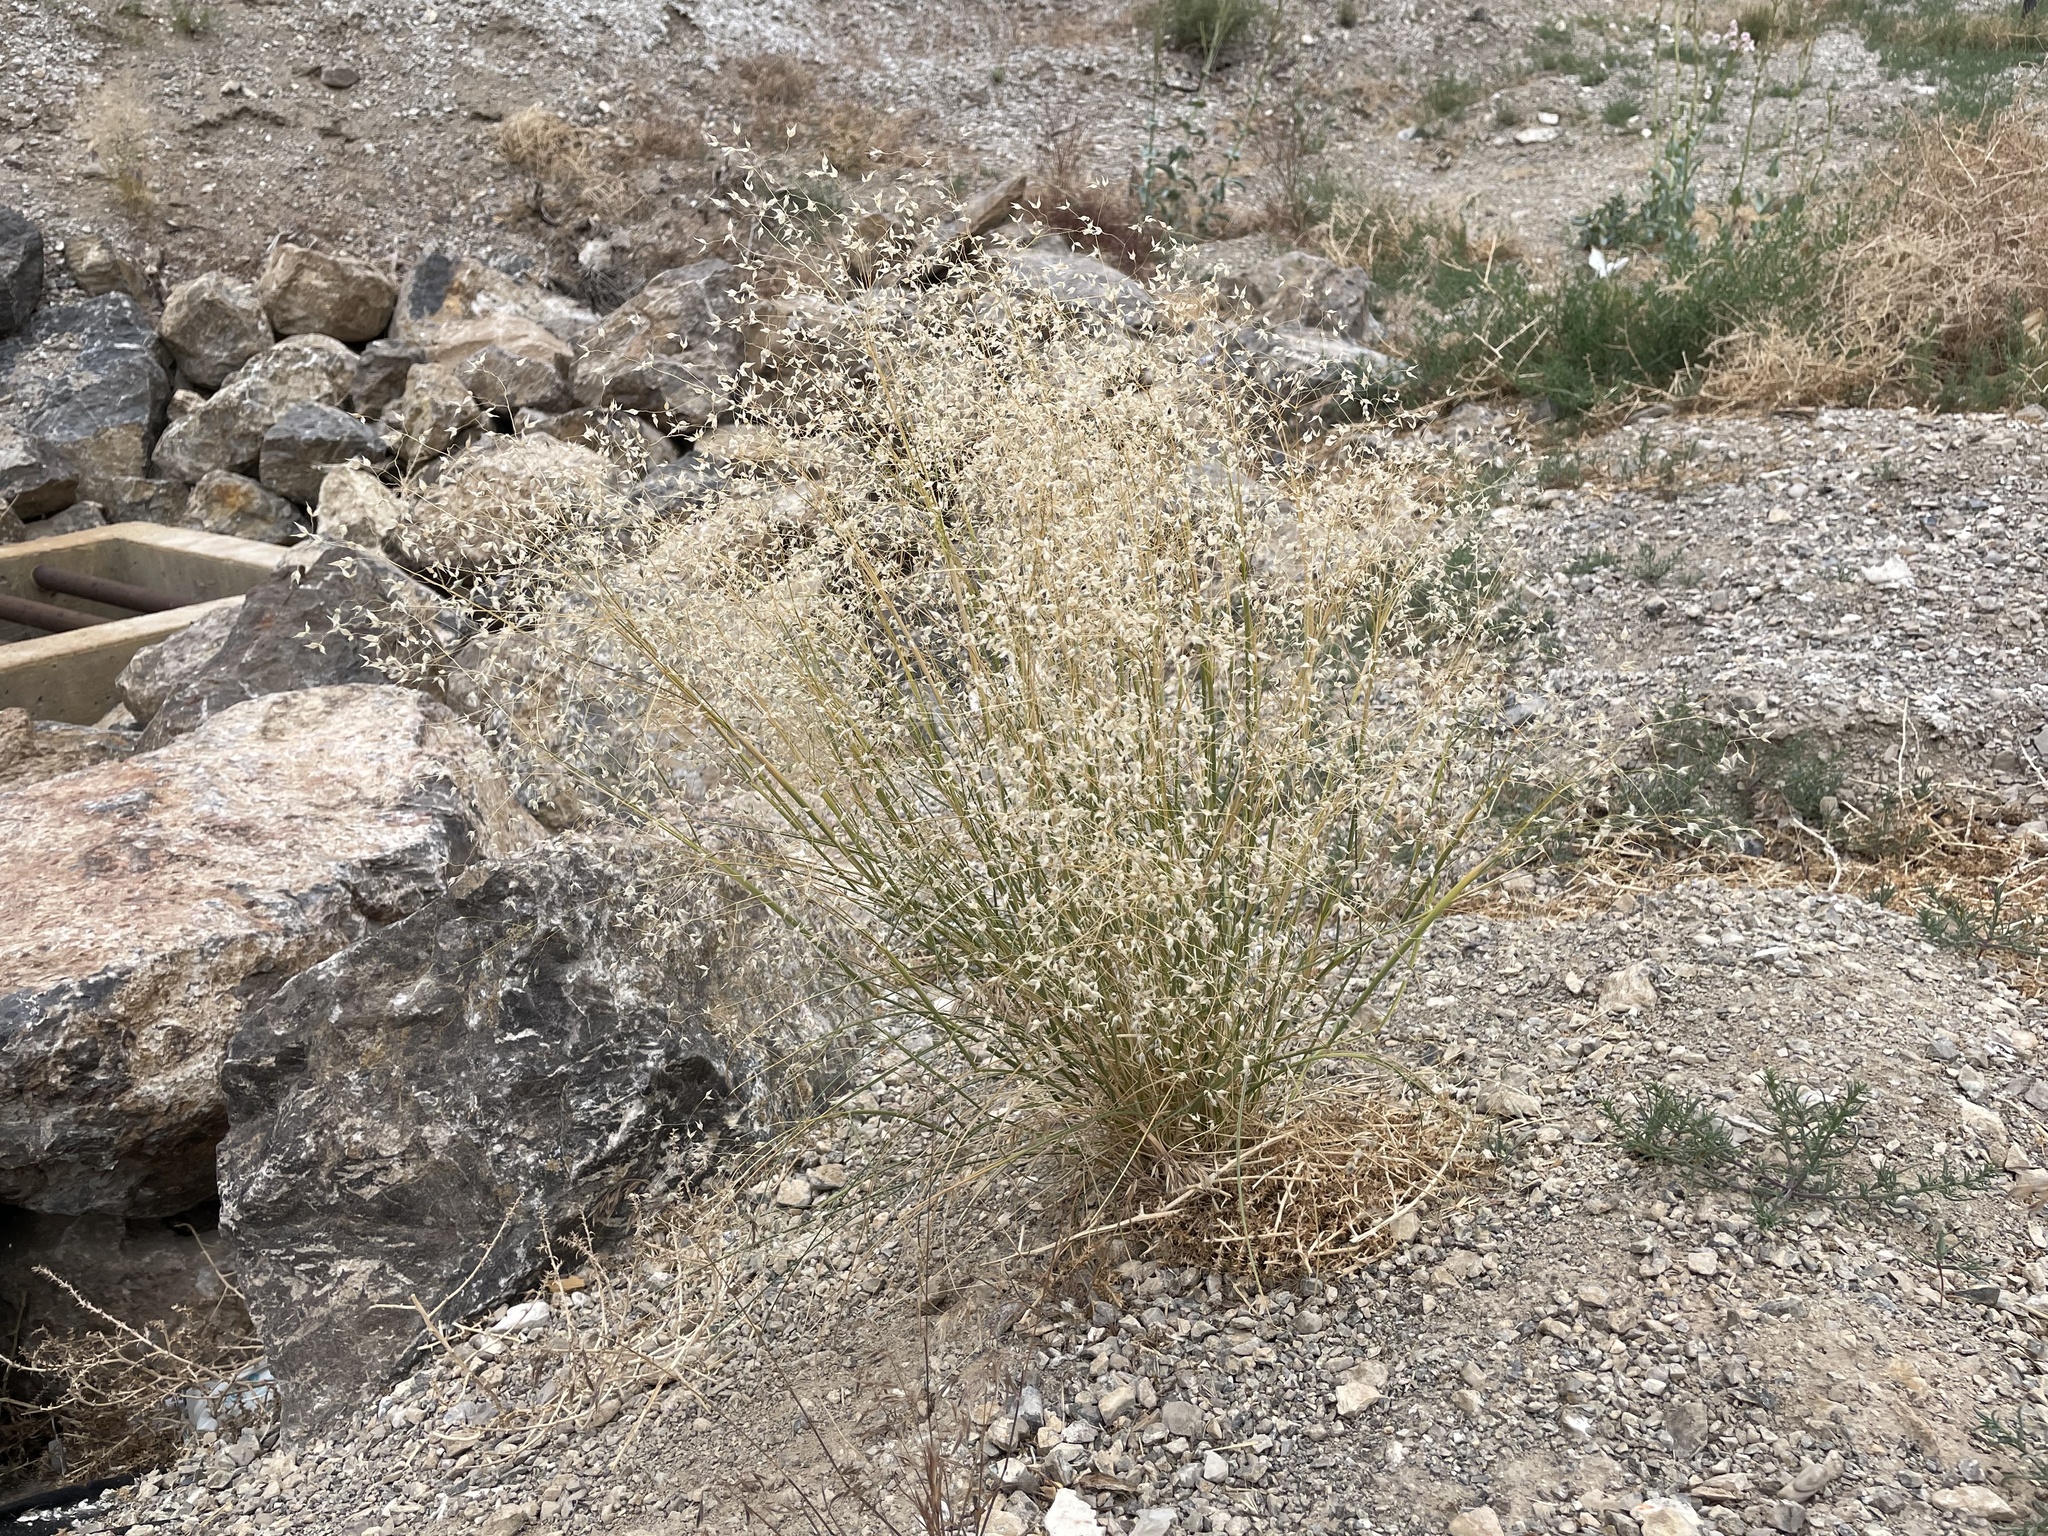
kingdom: Plantae
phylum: Tracheophyta
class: Liliopsida
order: Poales
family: Poaceae
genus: Eriocoma
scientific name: Eriocoma hymenoides
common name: Indian mountain ricegrass
